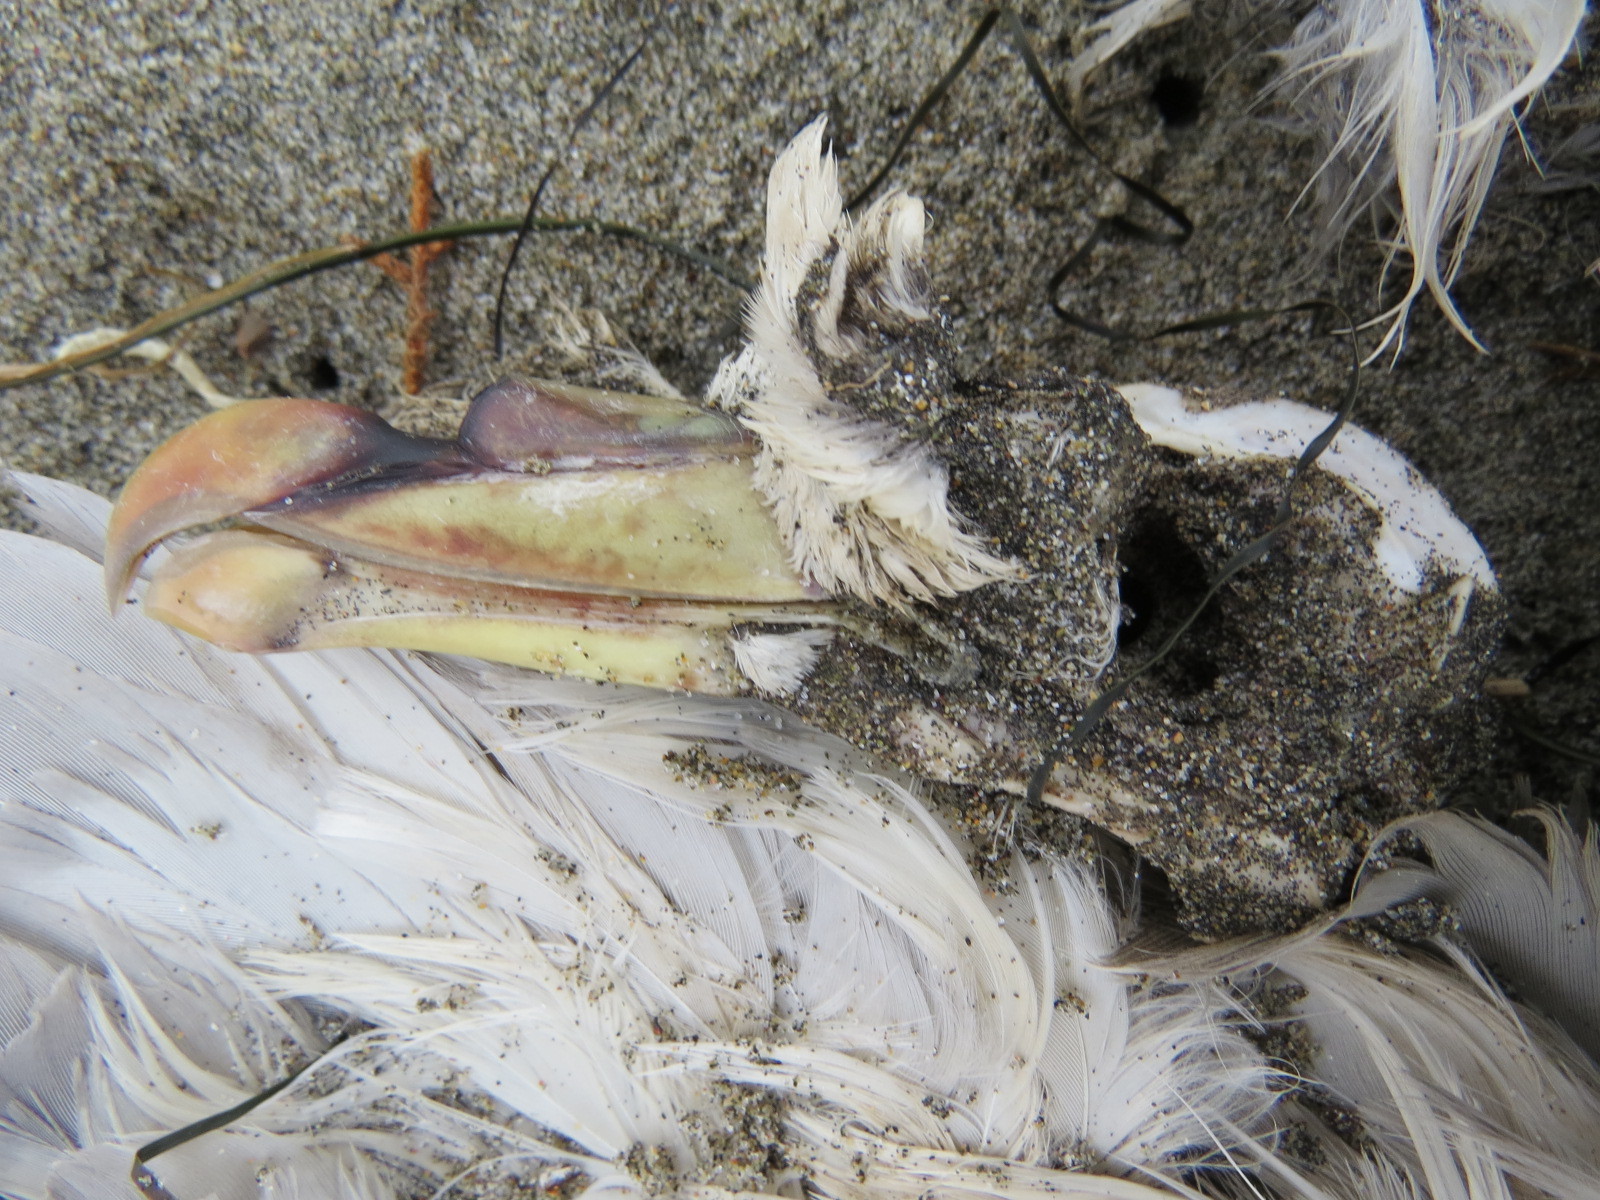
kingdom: Animalia
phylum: Chordata
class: Aves
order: Procellariiformes
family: Procellariidae
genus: Fulmarus
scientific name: Fulmarus glacialis
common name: Northern fulmar
